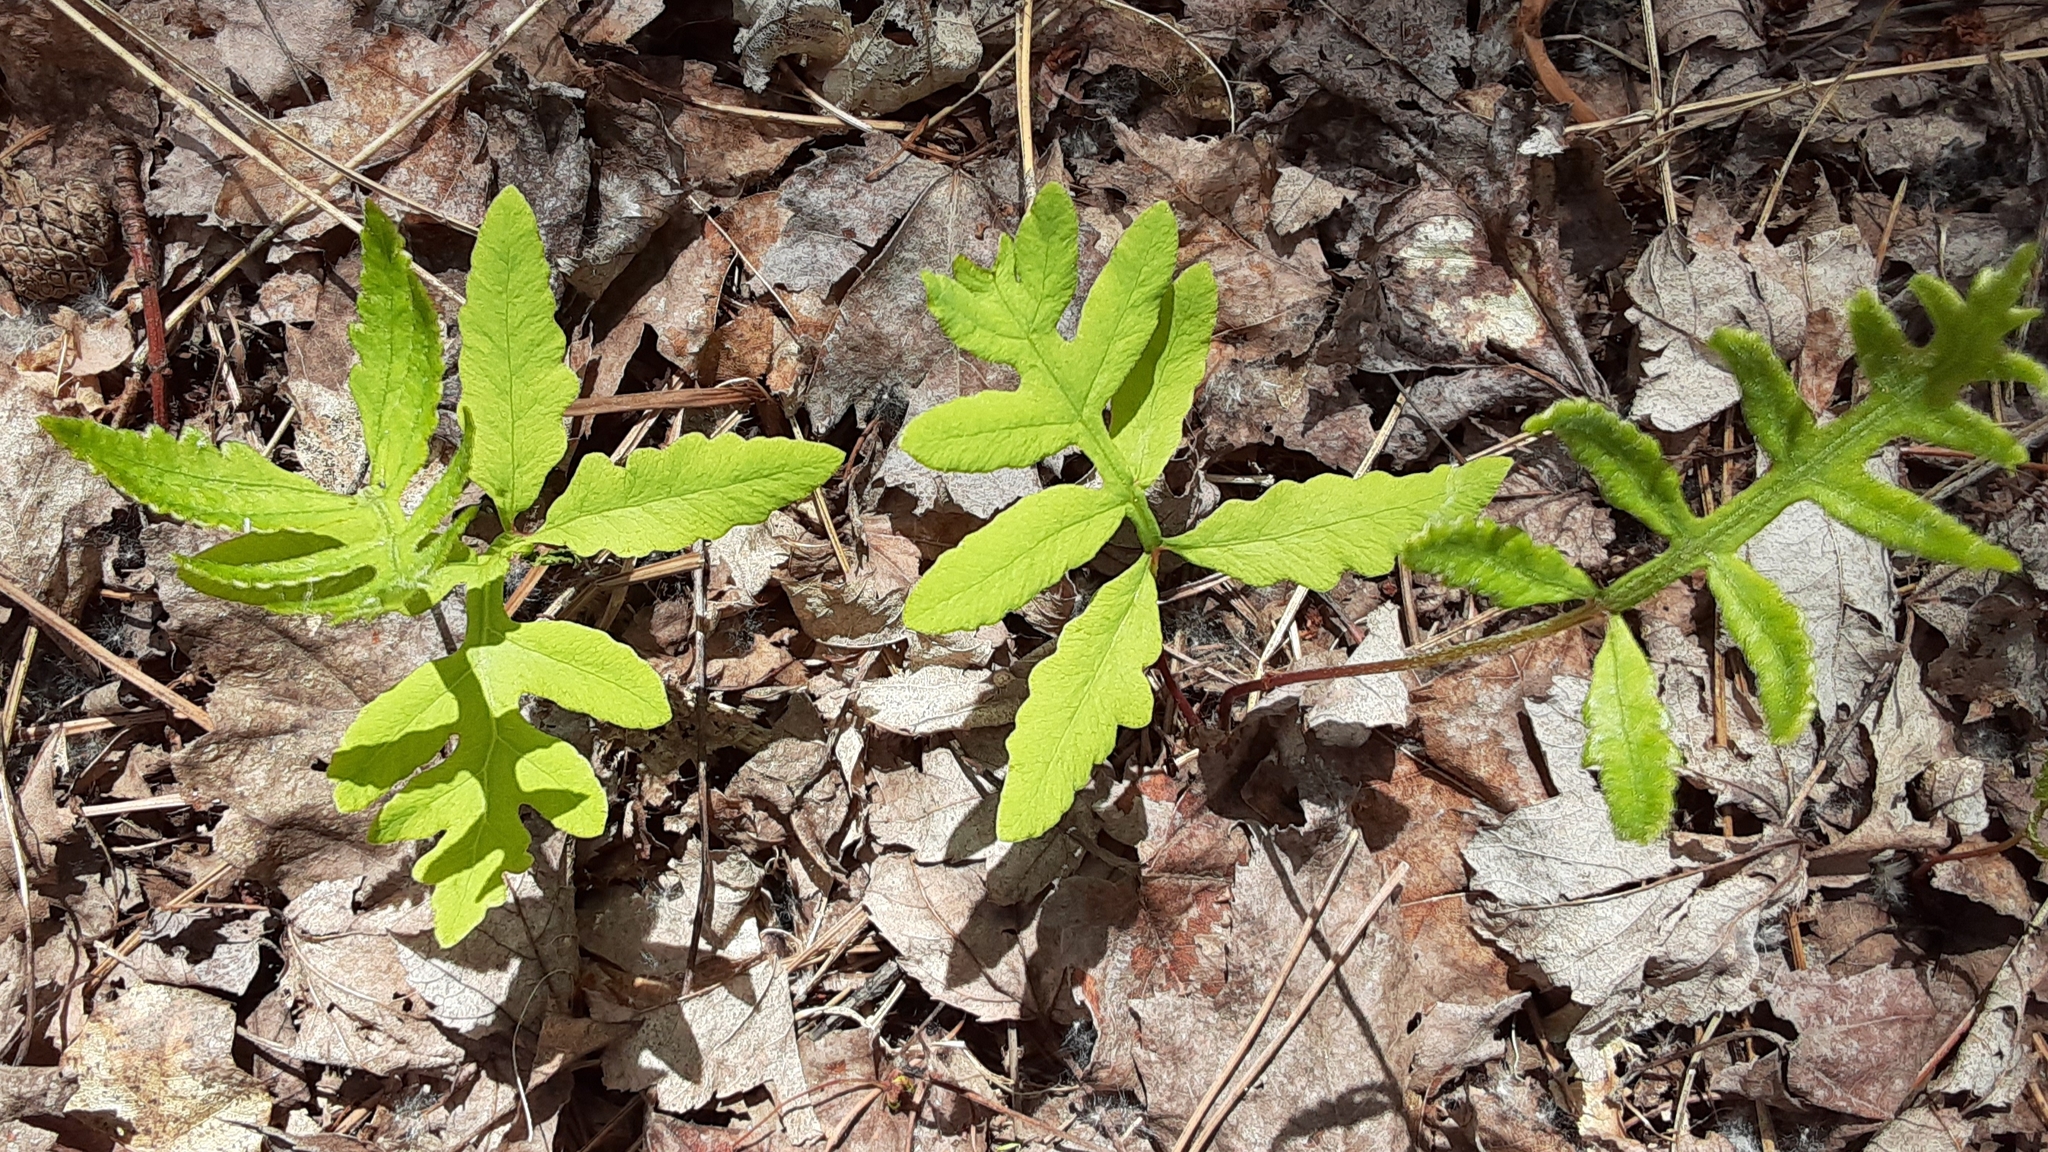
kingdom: Plantae
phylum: Tracheophyta
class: Polypodiopsida
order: Polypodiales
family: Onocleaceae
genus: Onoclea
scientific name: Onoclea sensibilis
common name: Sensitive fern
